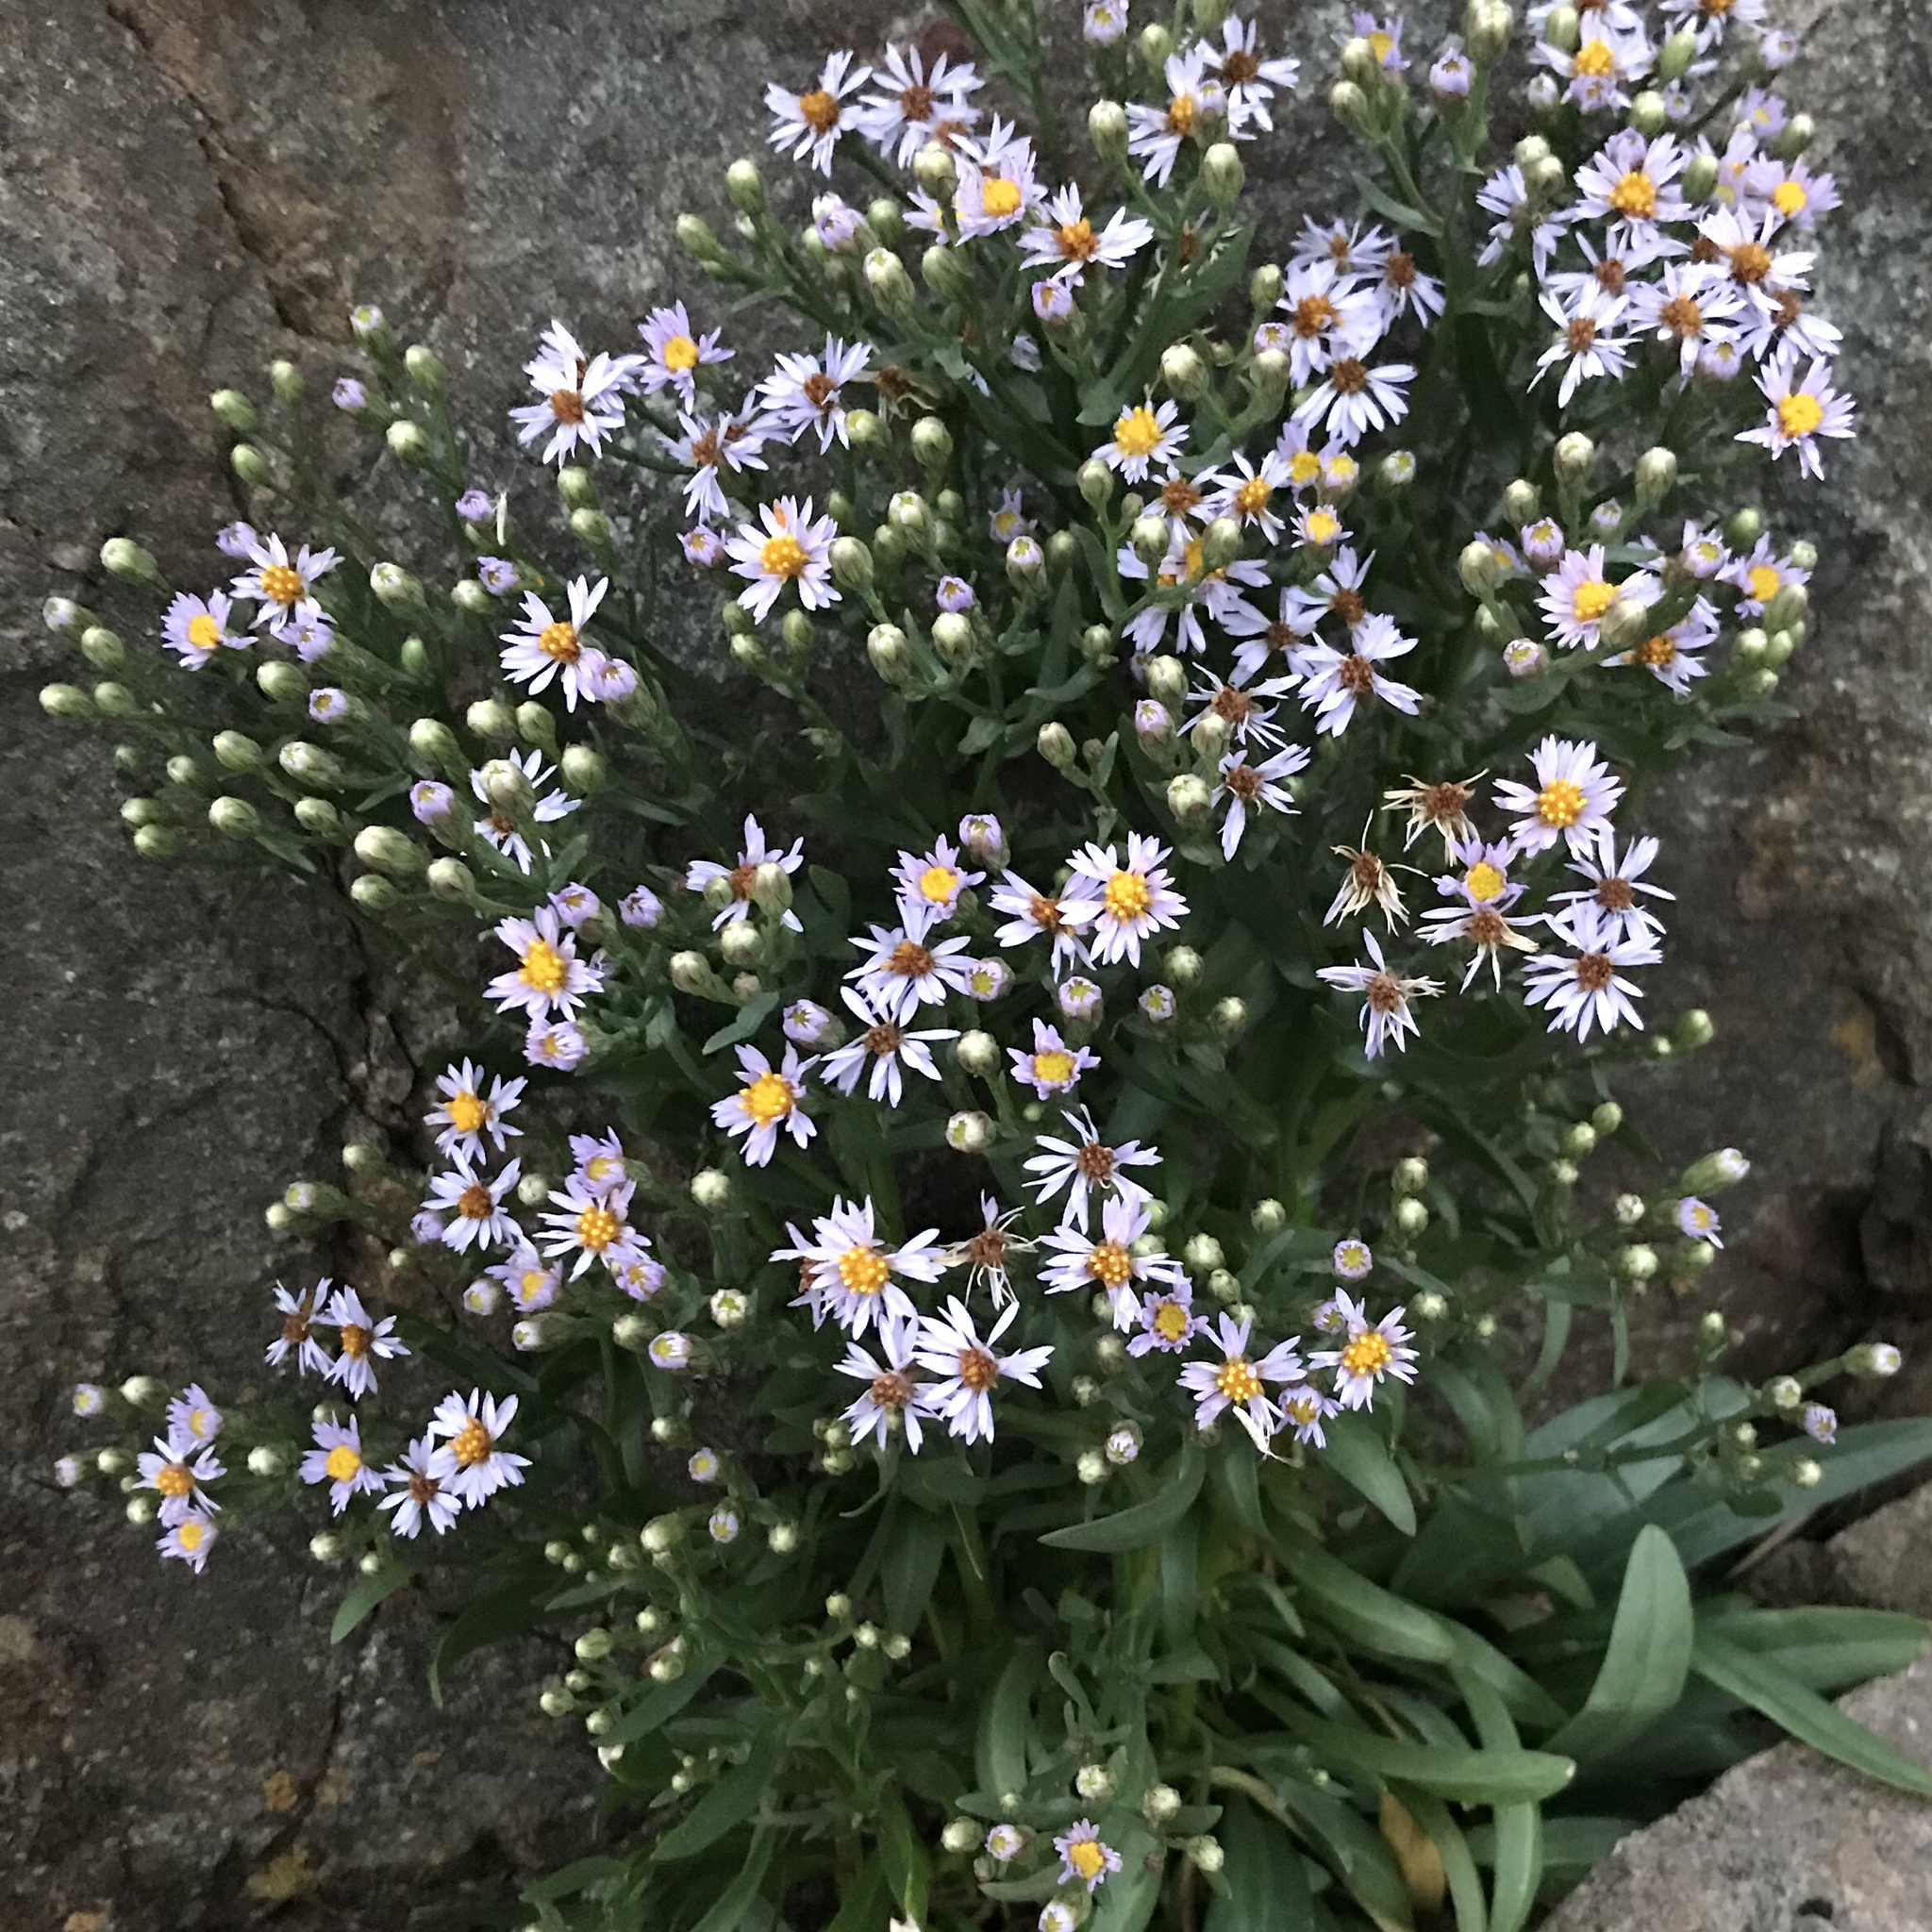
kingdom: Plantae
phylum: Tracheophyta
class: Magnoliopsida
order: Asterales
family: Asteraceae
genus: Tripolium
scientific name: Tripolium pannonicum
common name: Sea aster
